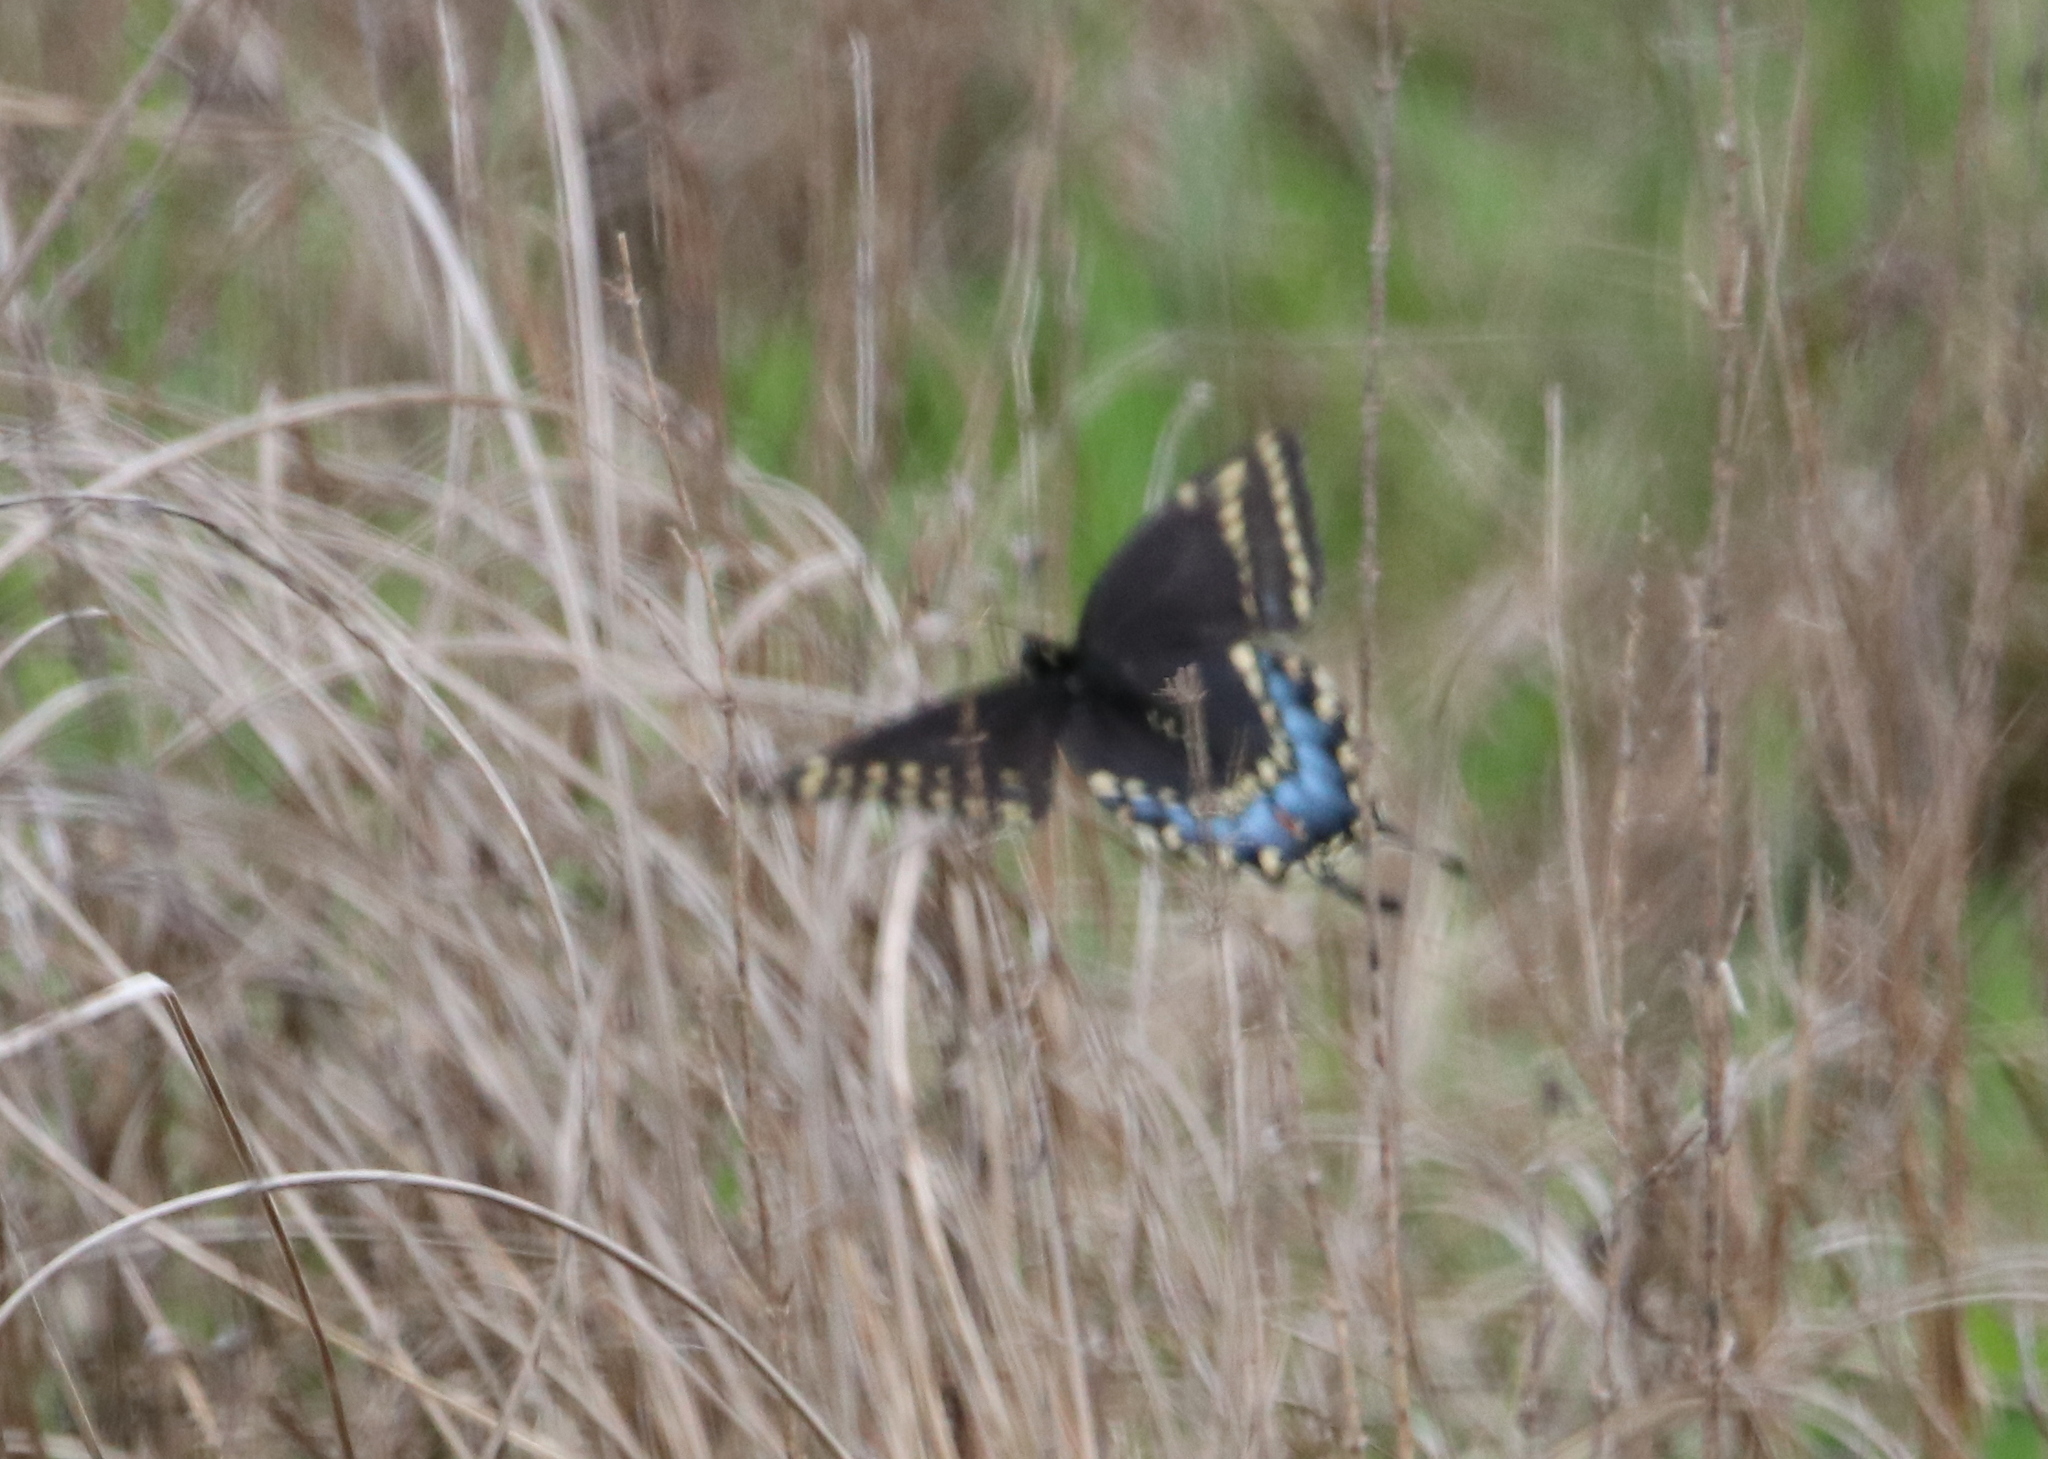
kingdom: Animalia
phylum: Arthropoda
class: Insecta
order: Lepidoptera
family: Papilionidae
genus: Papilio
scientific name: Papilio polyxenes
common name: Black swallowtail
